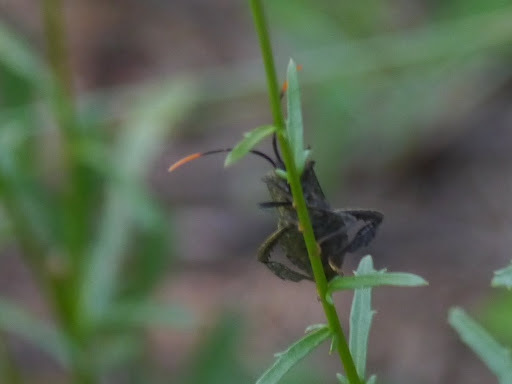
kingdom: Animalia
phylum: Arthropoda
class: Insecta
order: Hemiptera
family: Coreidae
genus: Acanthocephala
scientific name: Acanthocephala terminalis
